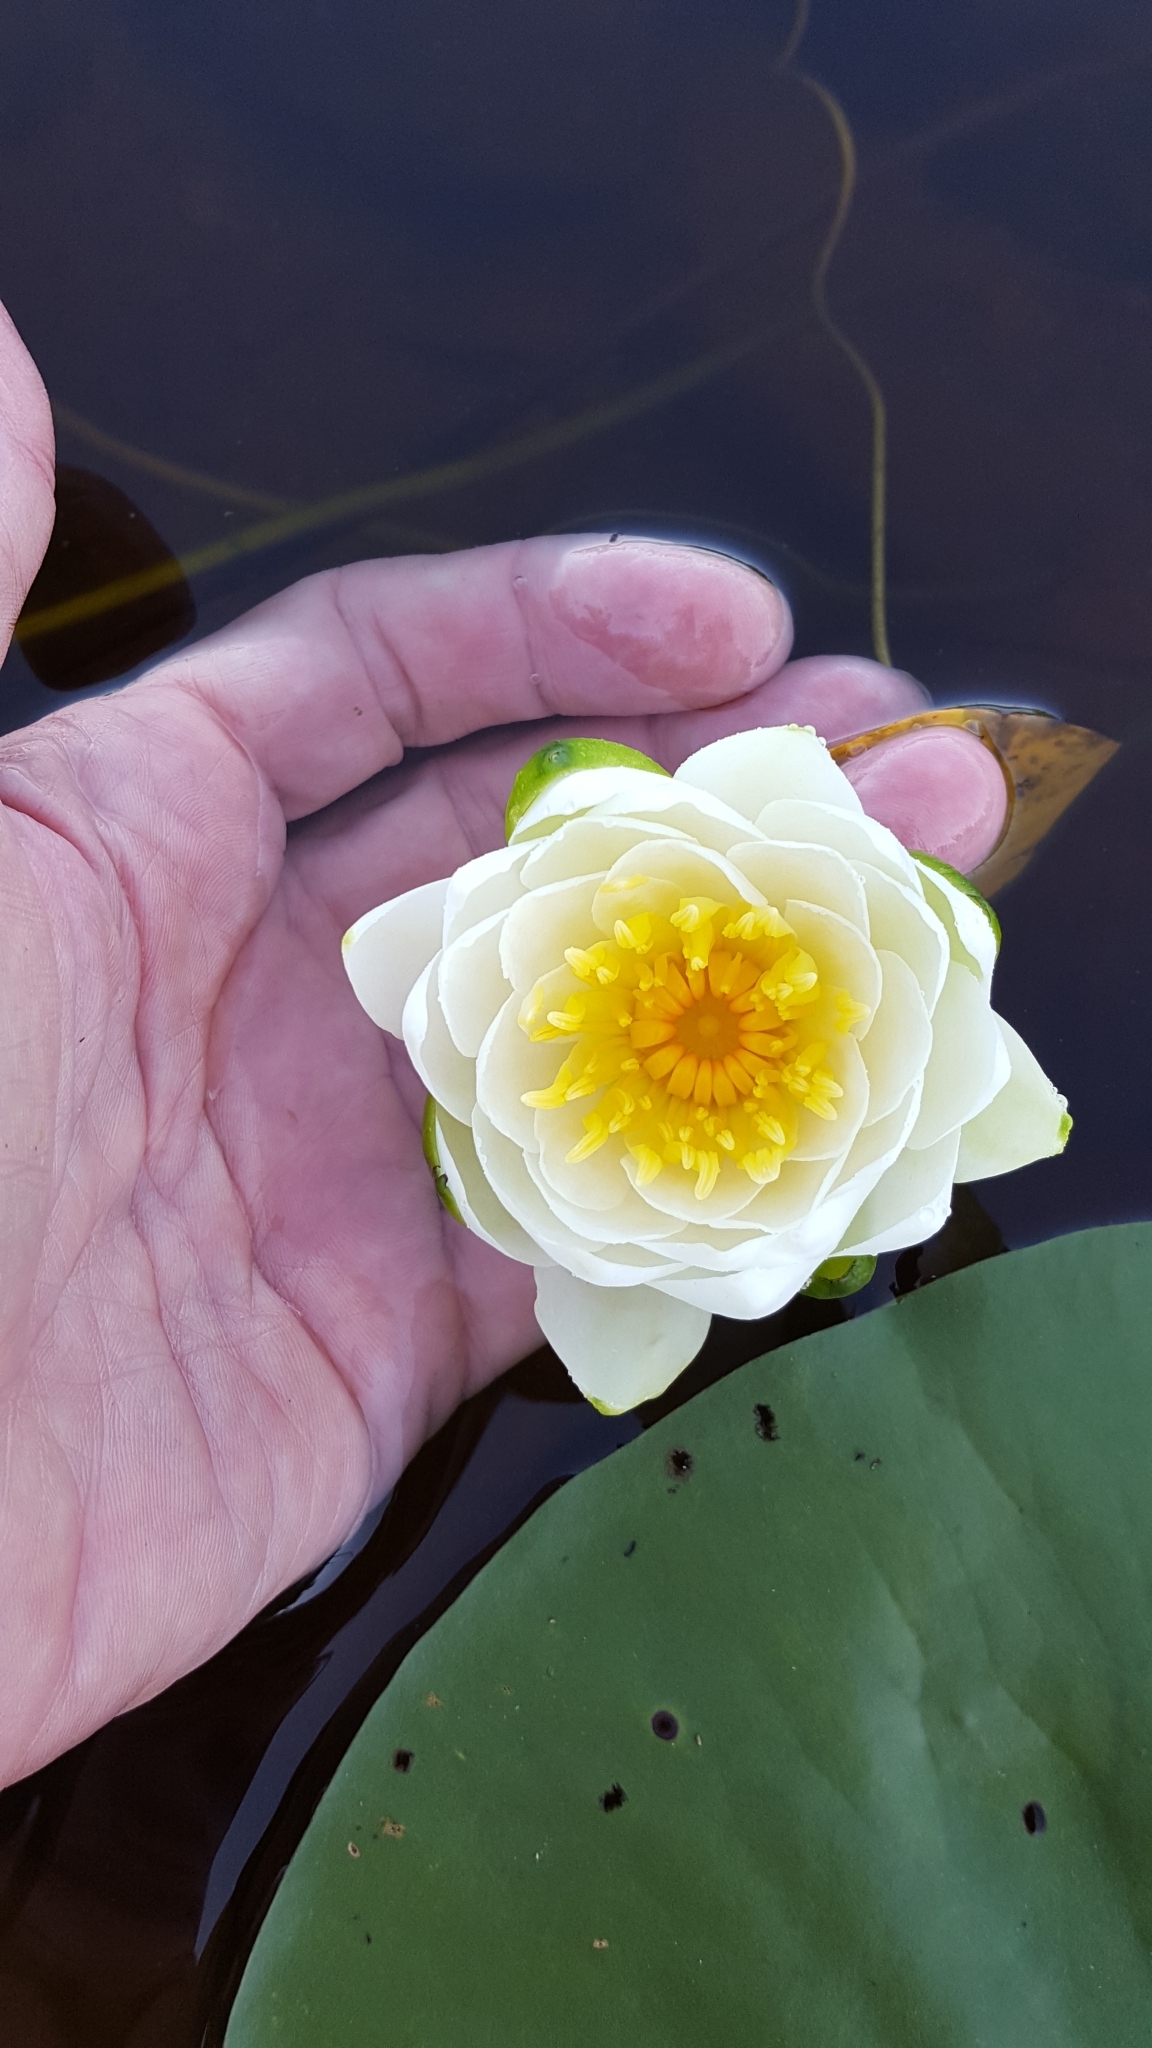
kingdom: Plantae
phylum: Tracheophyta
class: Magnoliopsida
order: Nymphaeales
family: Nymphaeaceae
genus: Nymphaea
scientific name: Nymphaea odorata
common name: Fragrant water-lily
